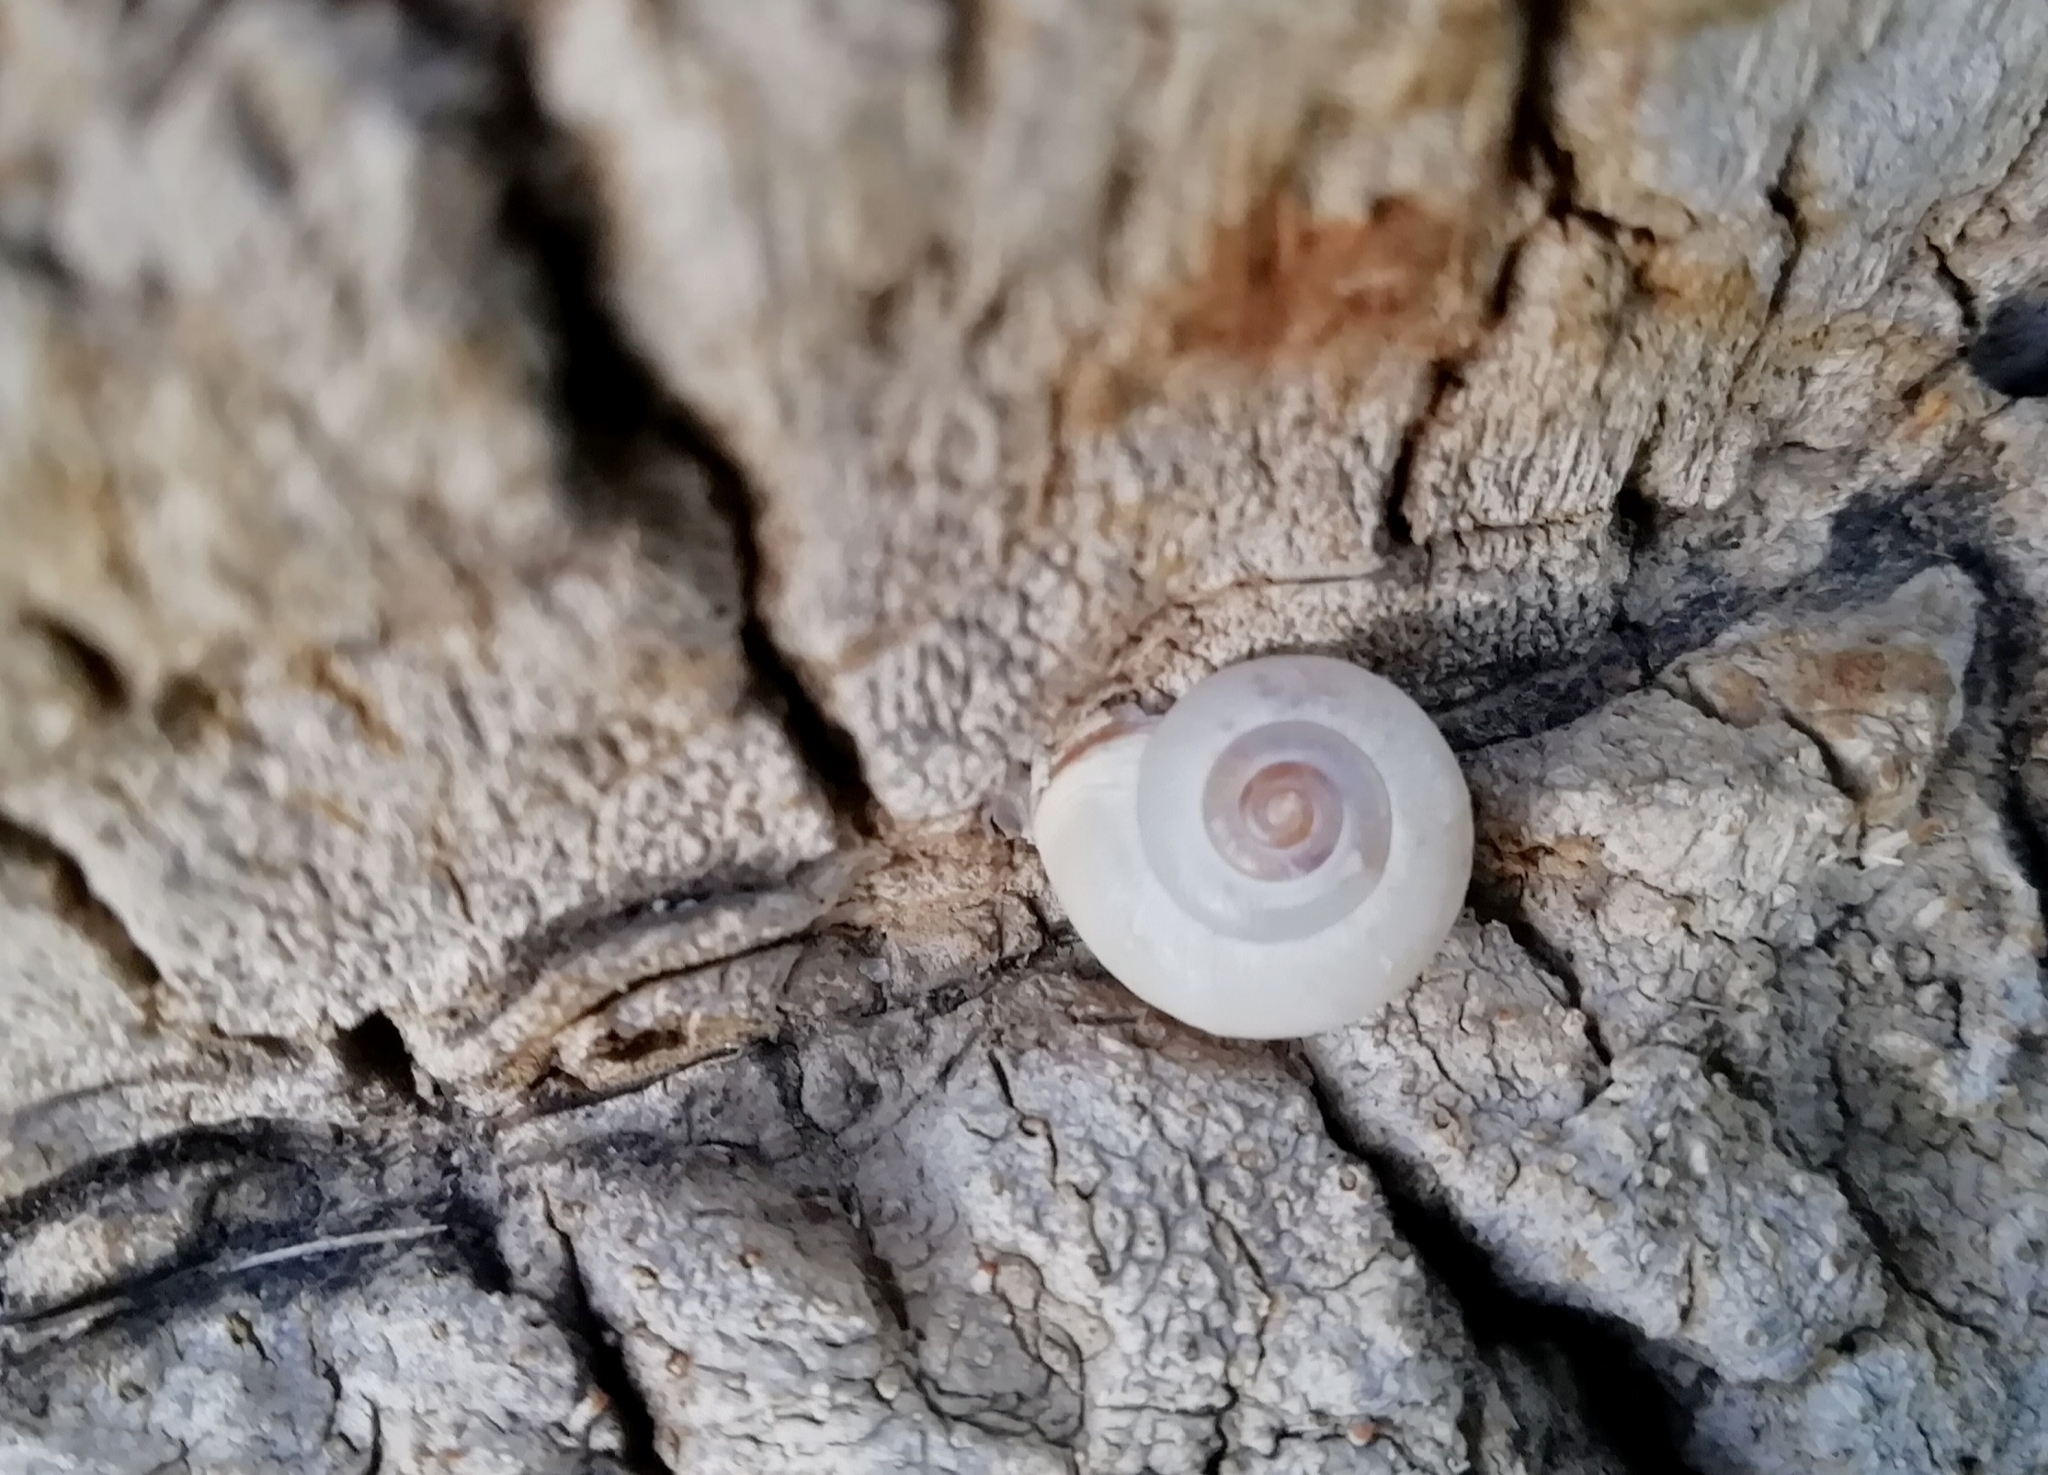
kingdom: Animalia
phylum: Mollusca
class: Gastropoda
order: Stylommatophora
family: Hygromiidae
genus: Monacha
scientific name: Monacha obstructa
